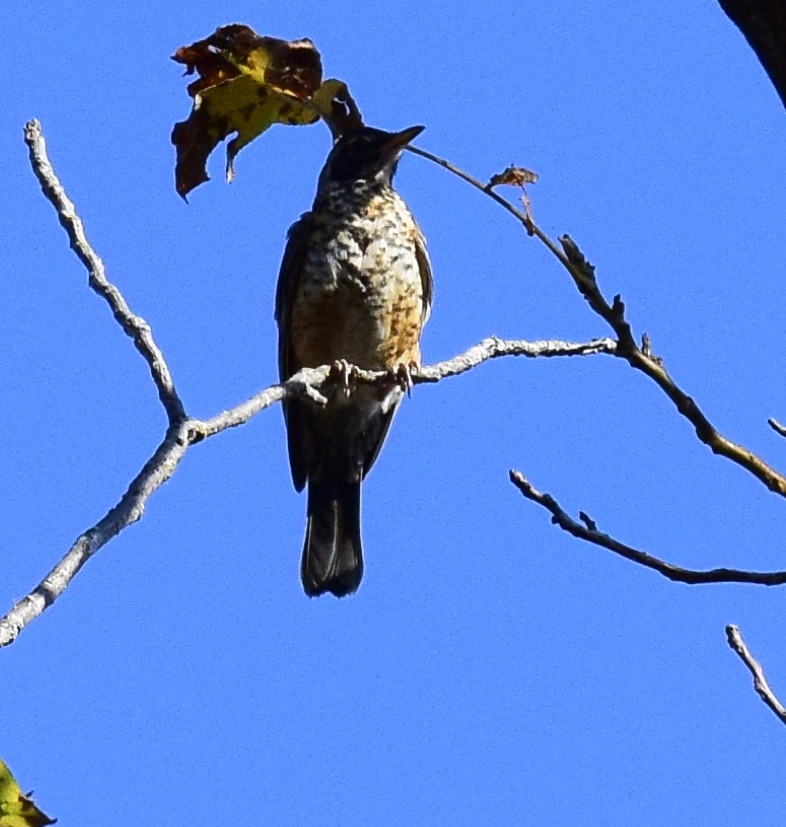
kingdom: Animalia
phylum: Chordata
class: Aves
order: Passeriformes
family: Turdidae
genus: Turdus
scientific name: Turdus migratorius
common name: American robin
